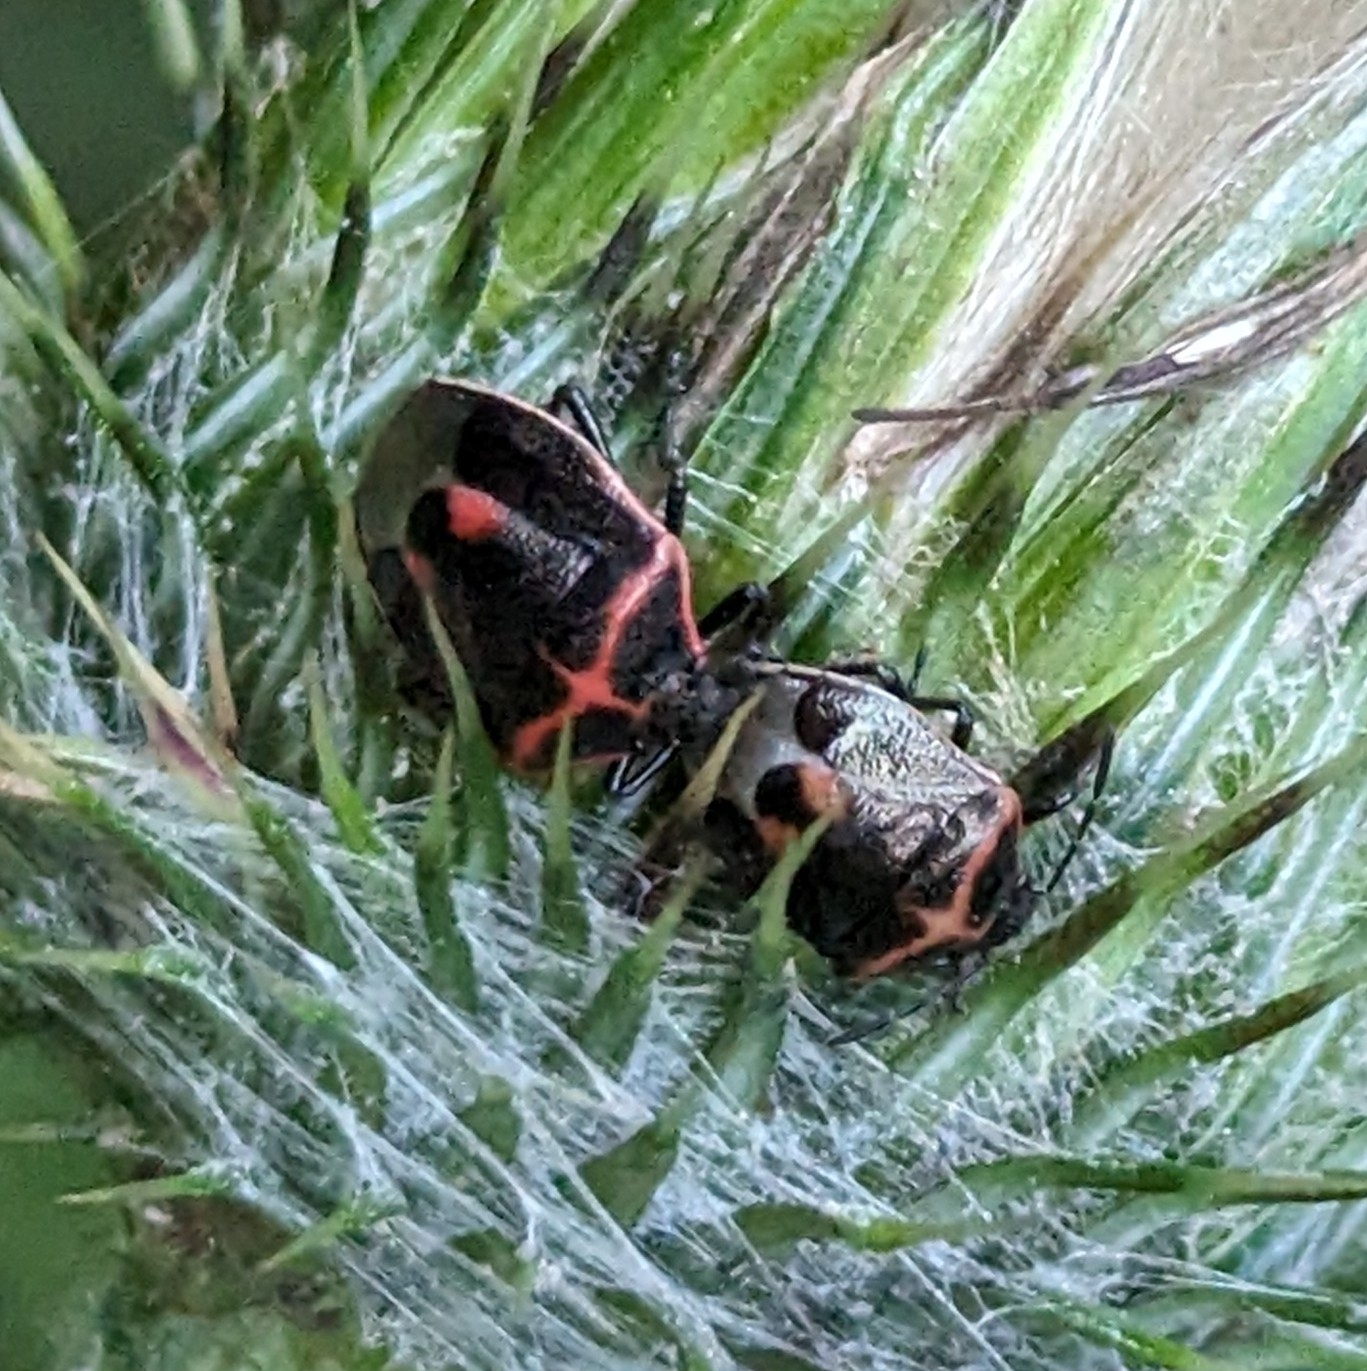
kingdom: Animalia
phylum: Arthropoda
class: Insecta
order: Hemiptera
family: Pentatomidae
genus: Cosmopepla
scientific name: Cosmopepla lintneriana
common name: Twice-stabbed stink bug
